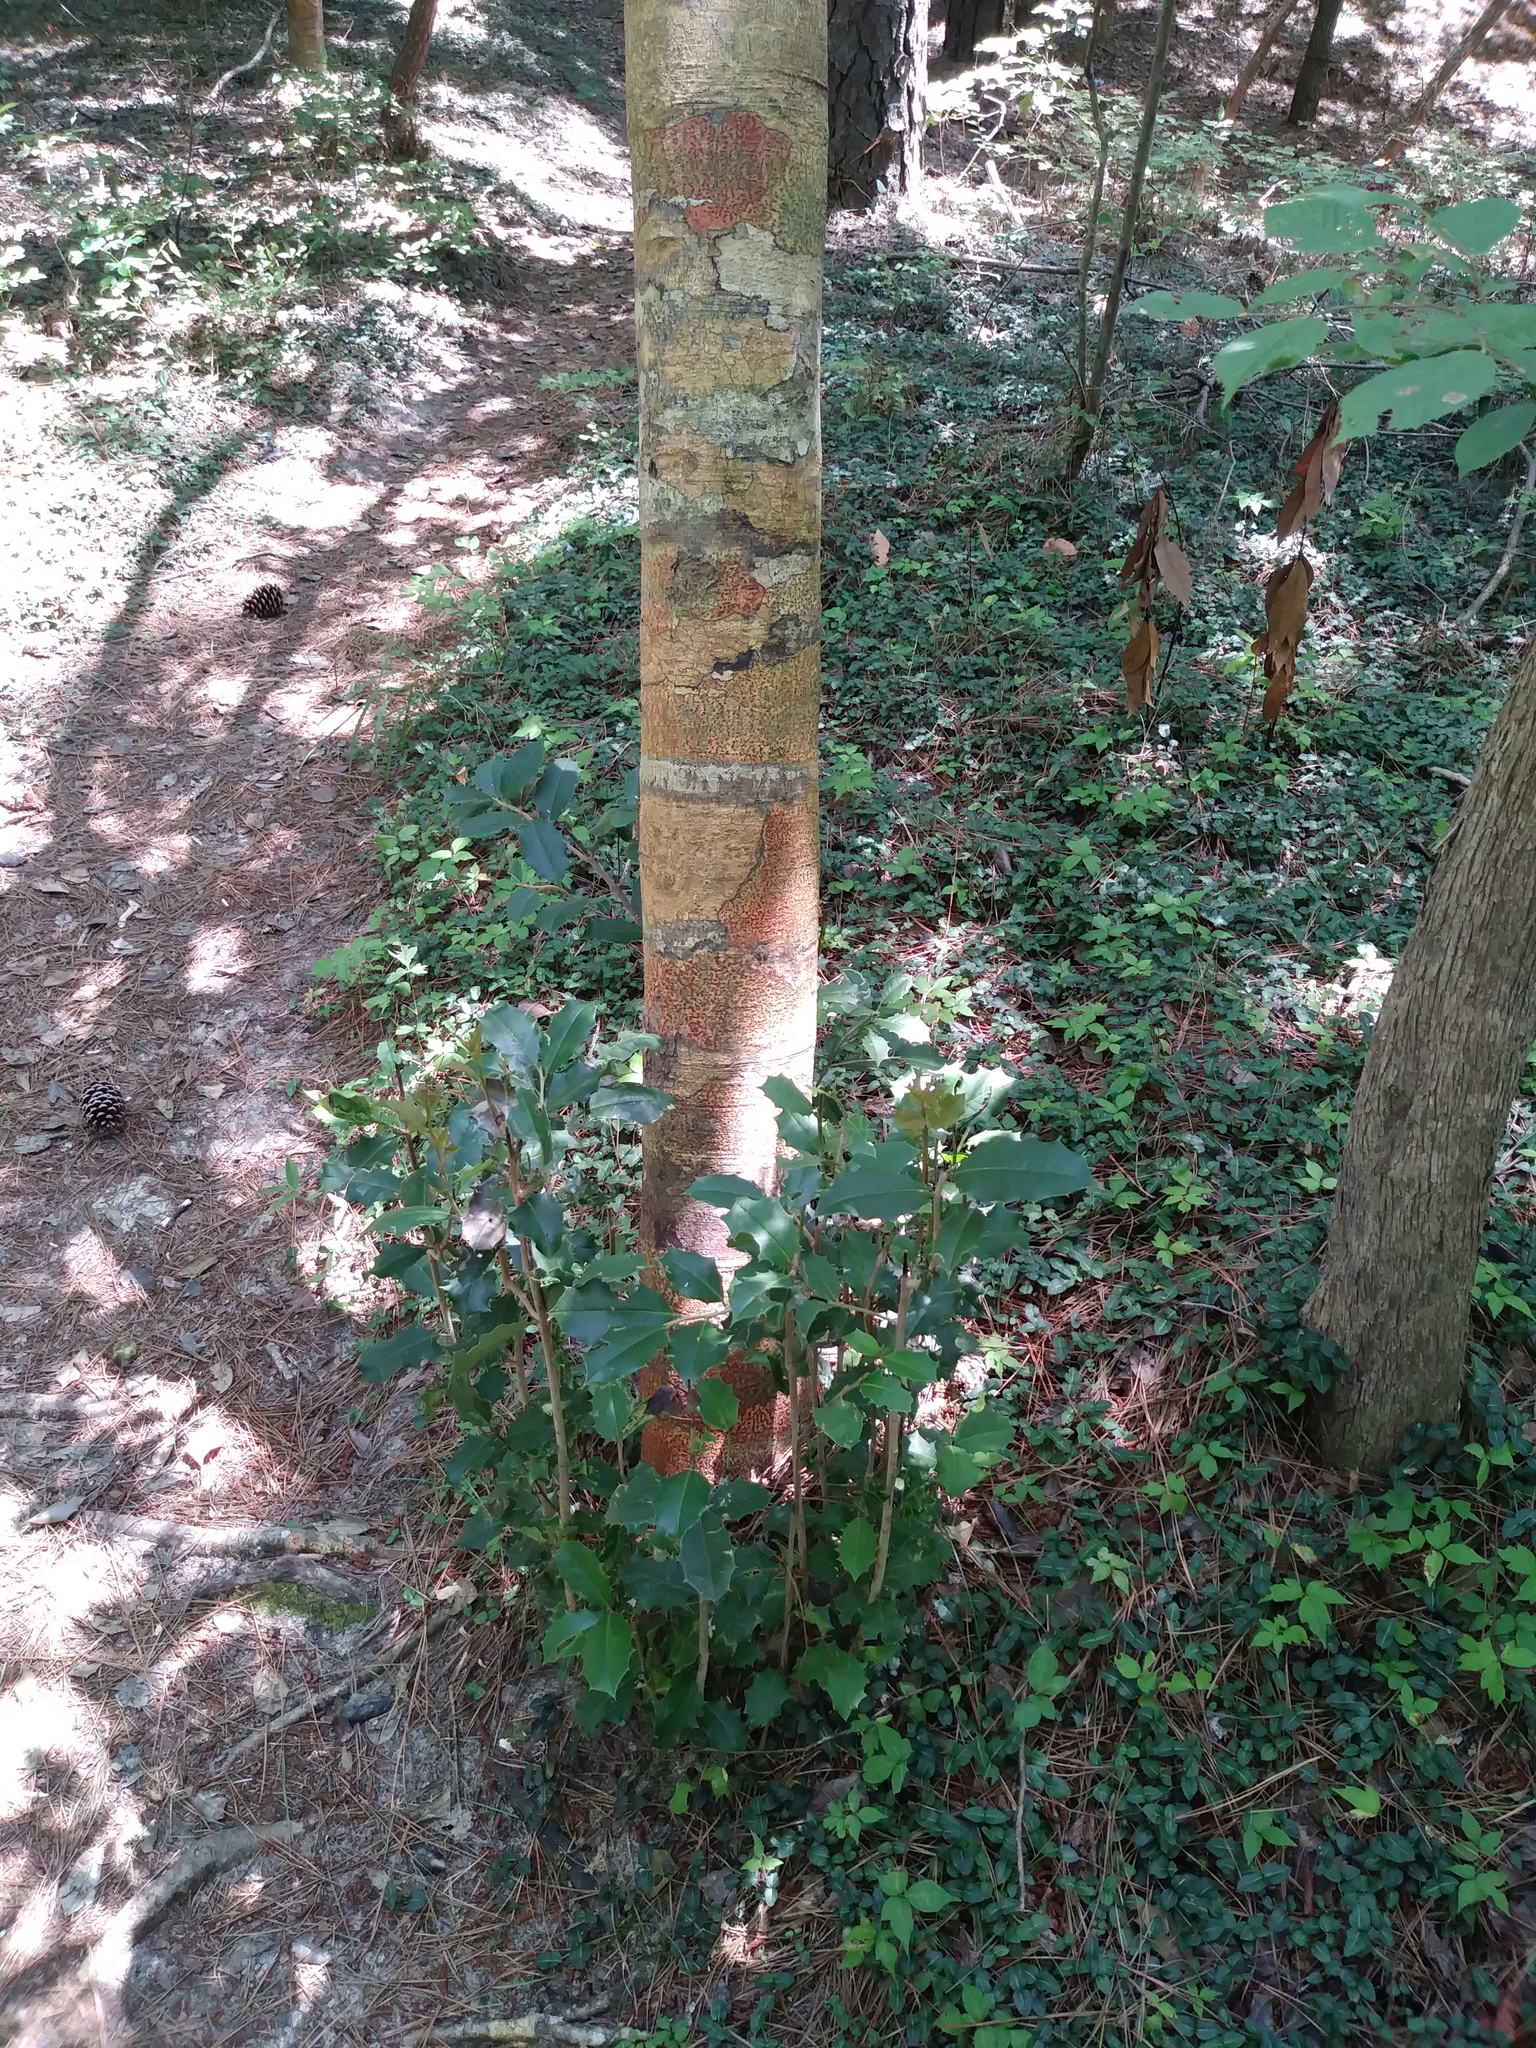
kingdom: Plantae
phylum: Tracheophyta
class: Magnoliopsida
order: Aquifoliales
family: Aquifoliaceae
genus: Ilex
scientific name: Ilex opaca
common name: American holly
